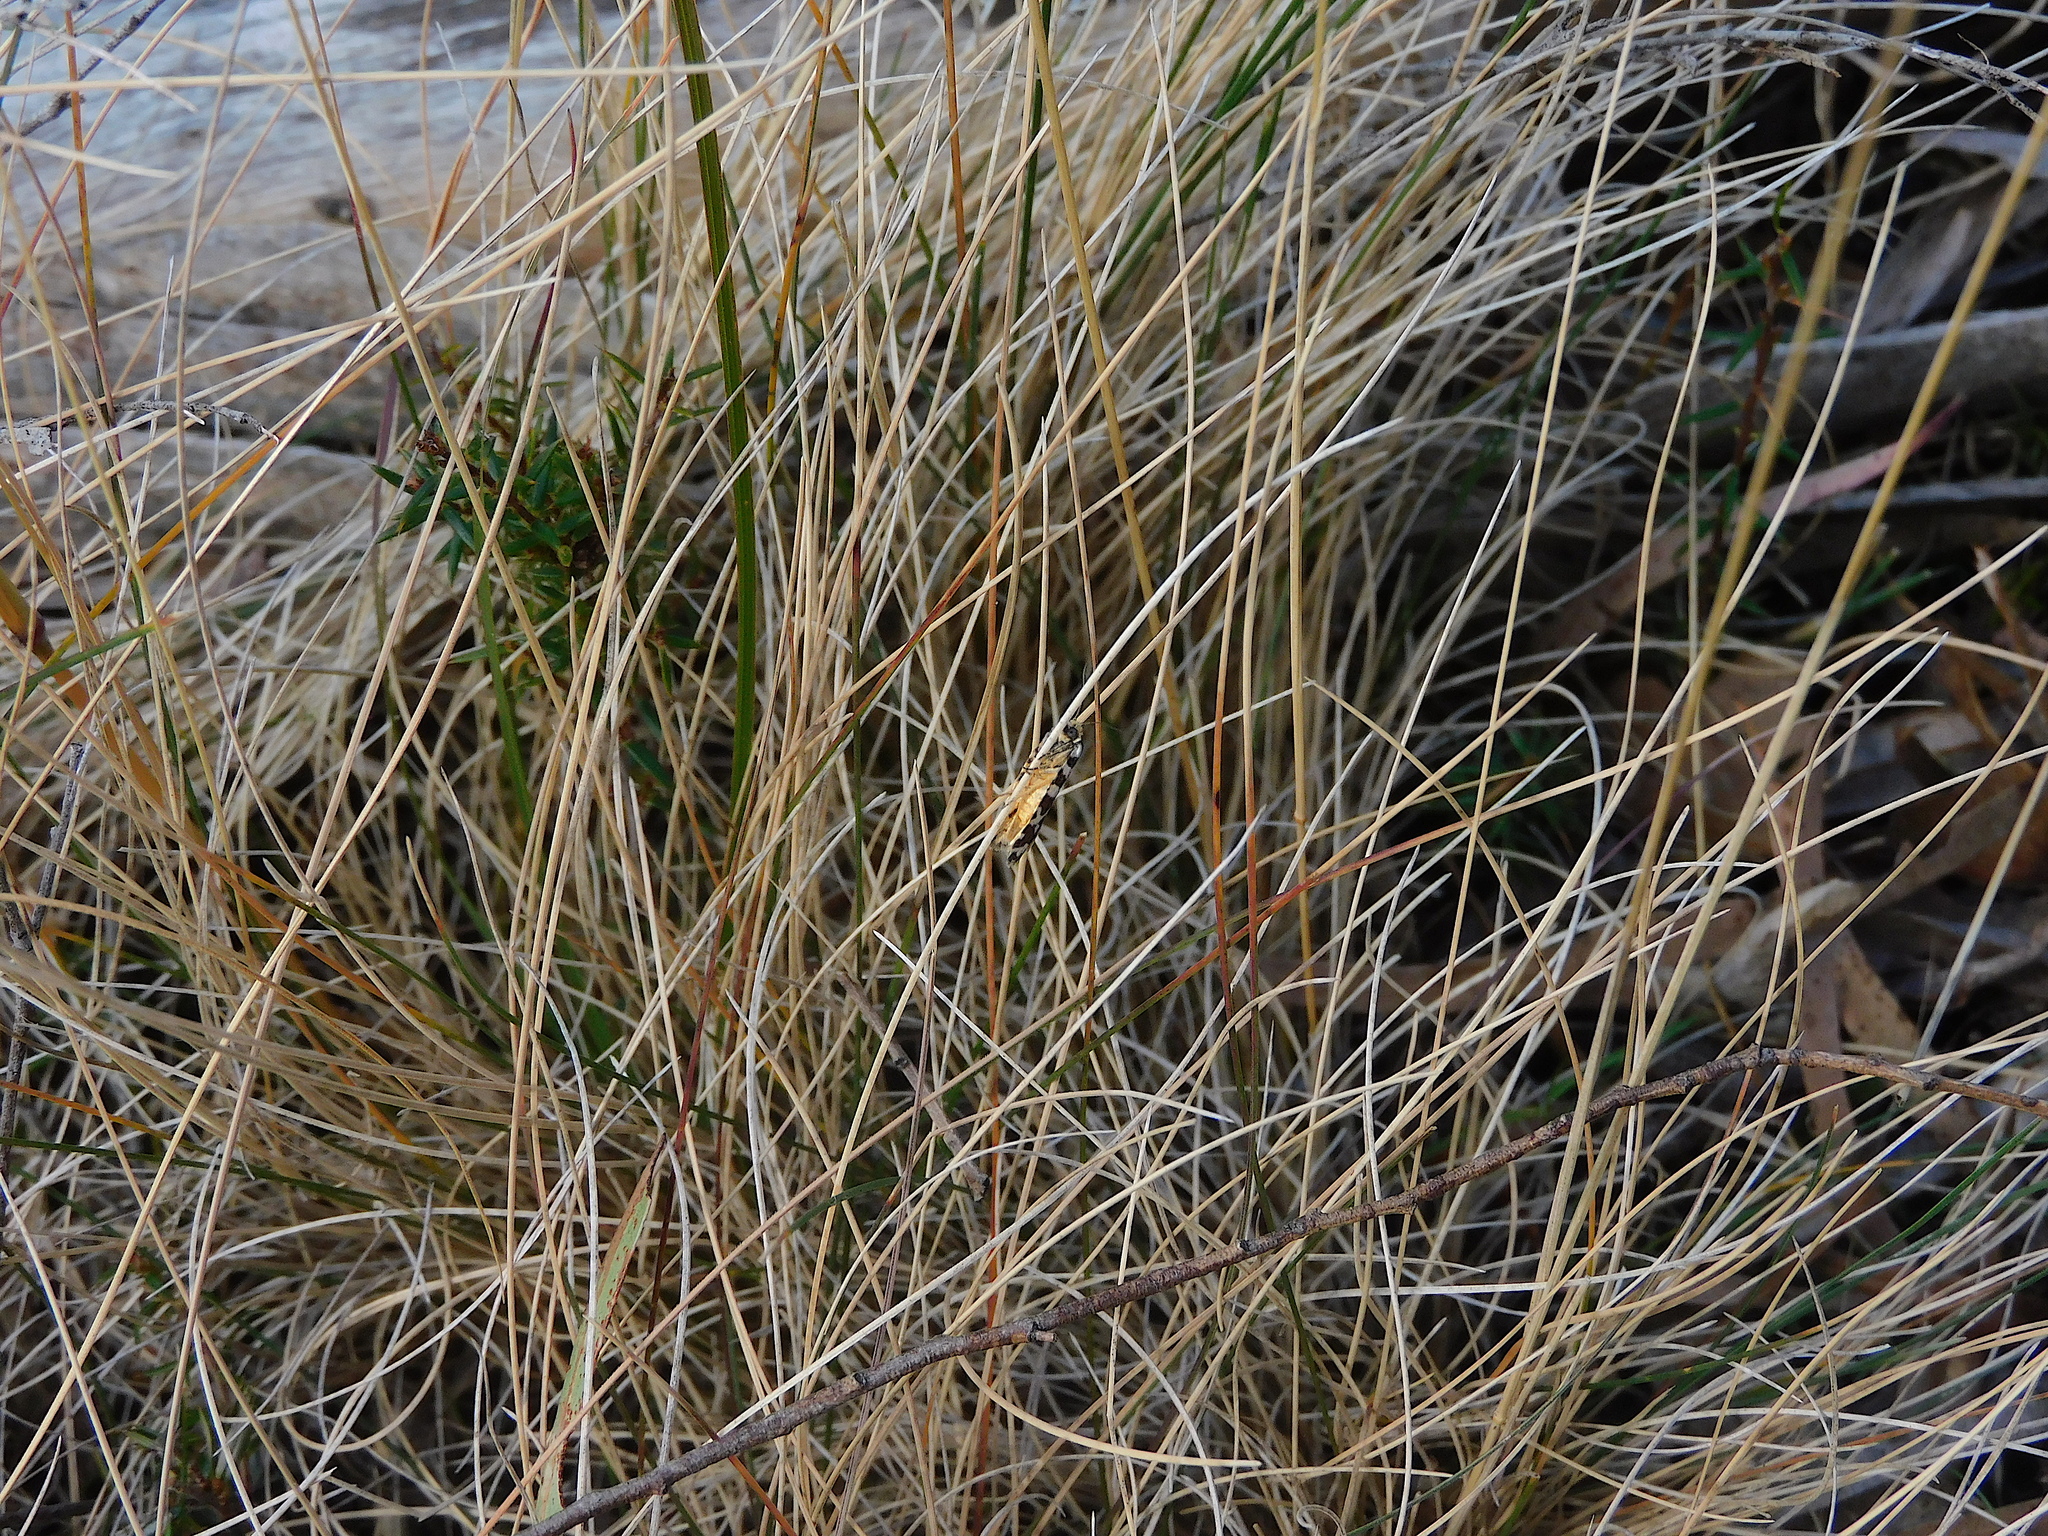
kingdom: Animalia
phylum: Arthropoda
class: Insecta
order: Lepidoptera
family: Tortricidae
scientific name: Tortricidae
